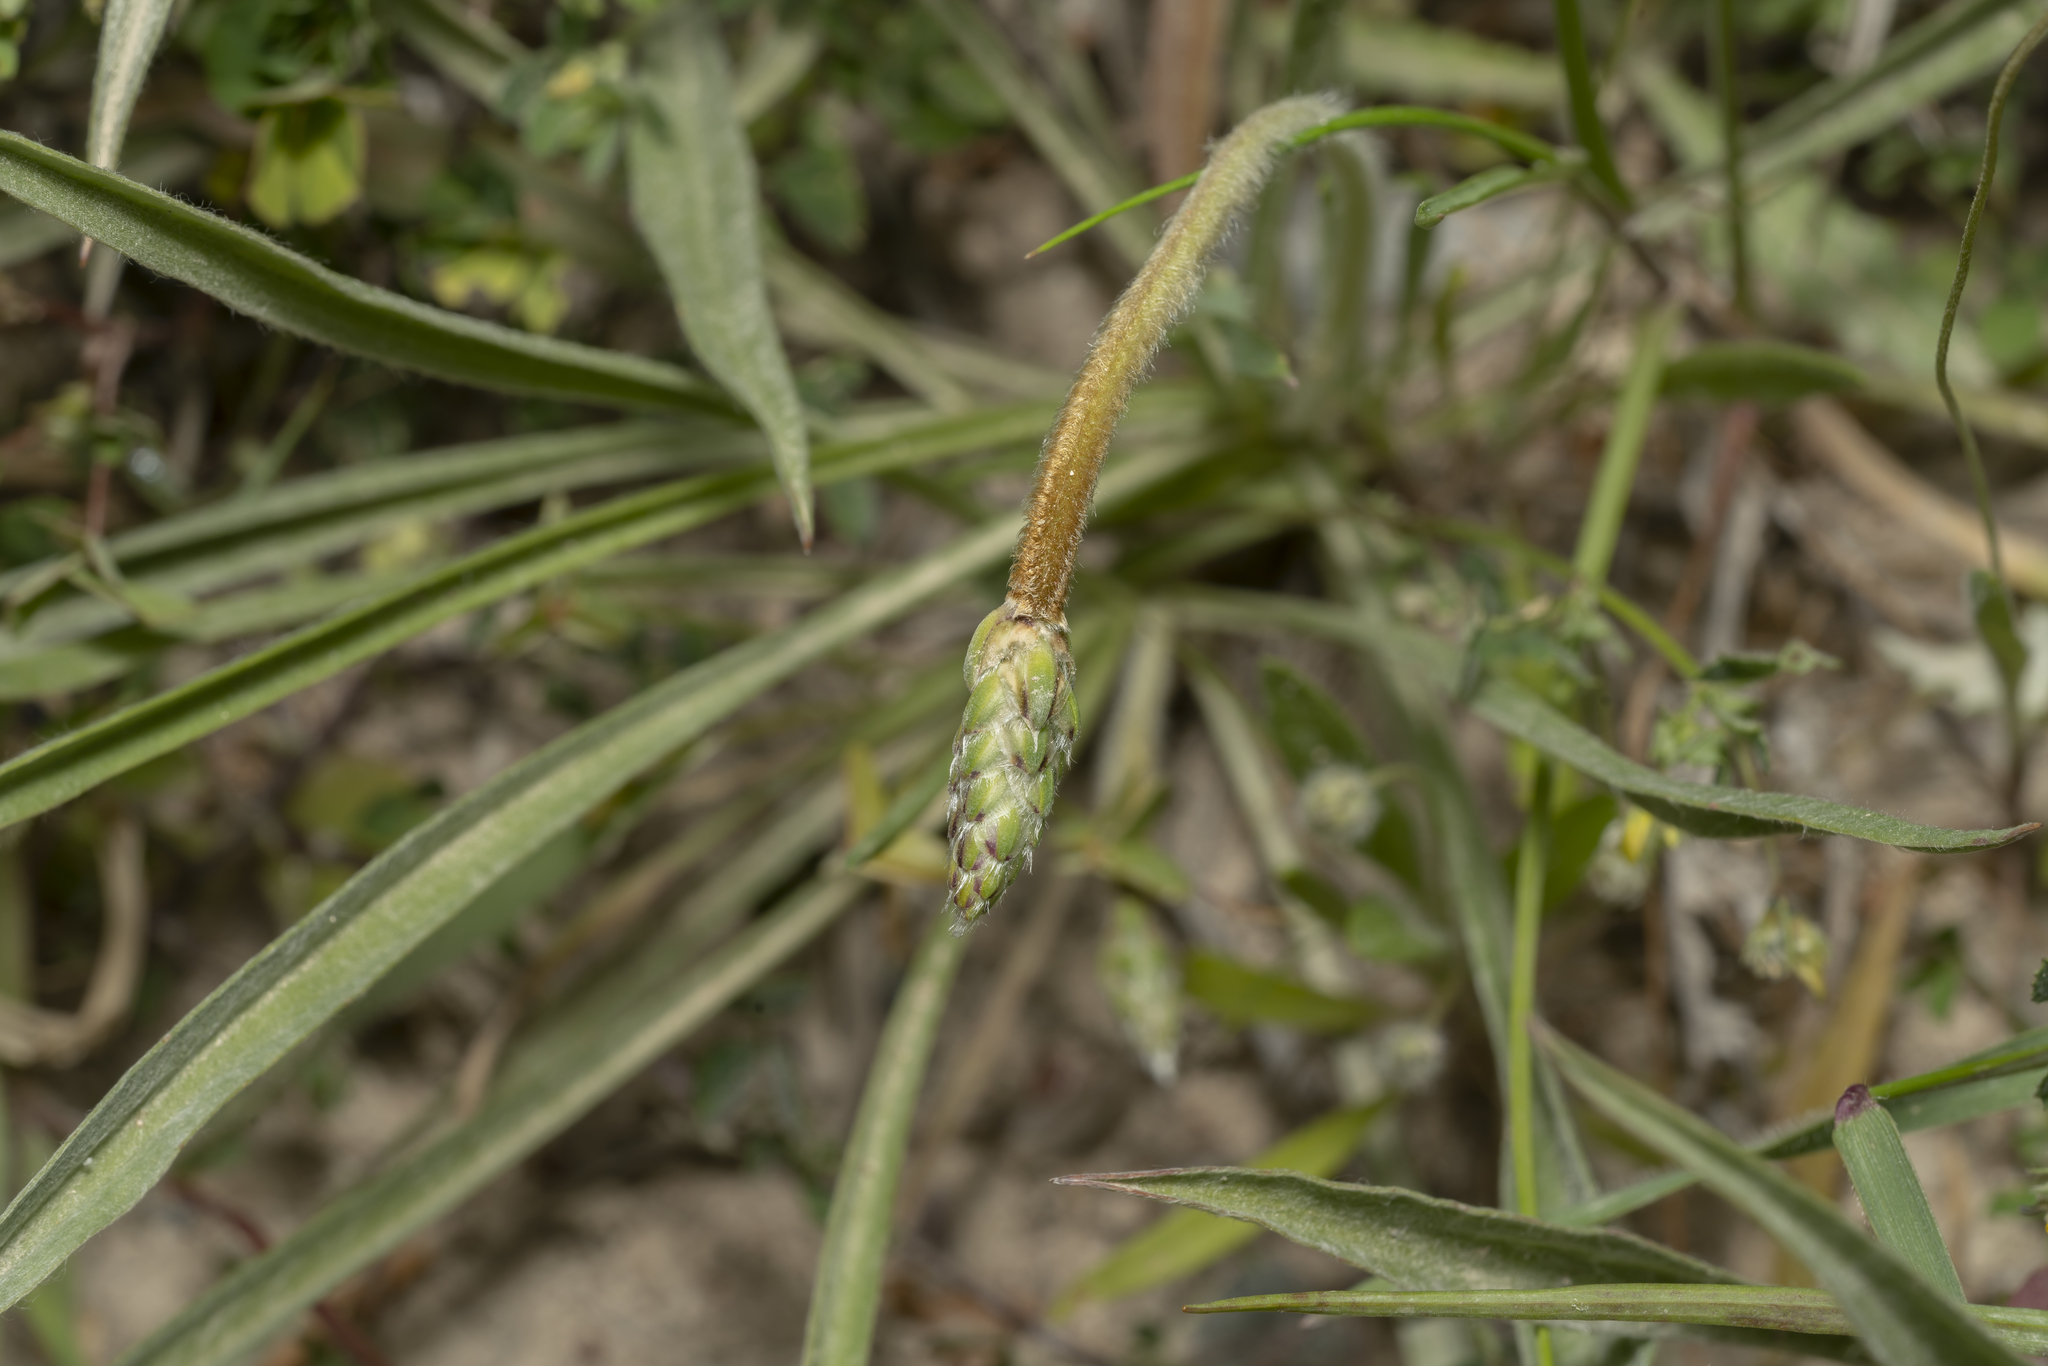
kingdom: Plantae
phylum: Tracheophyta
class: Magnoliopsida
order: Lamiales
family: Plantaginaceae
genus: Plantago
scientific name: Plantago albicans
